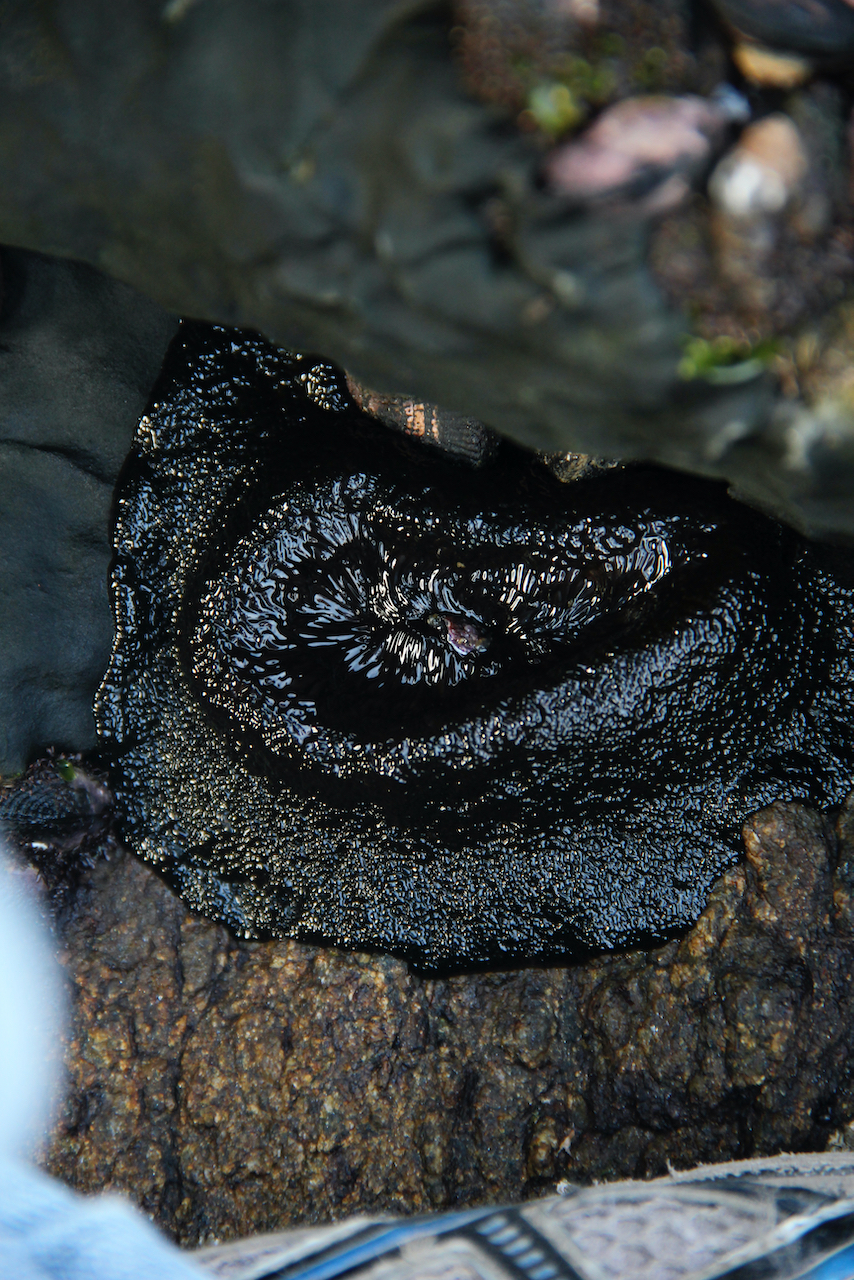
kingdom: Animalia
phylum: Cnidaria
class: Anthozoa
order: Actiniaria
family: Actiniidae
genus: Phymactis
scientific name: Phymactis papillosa
